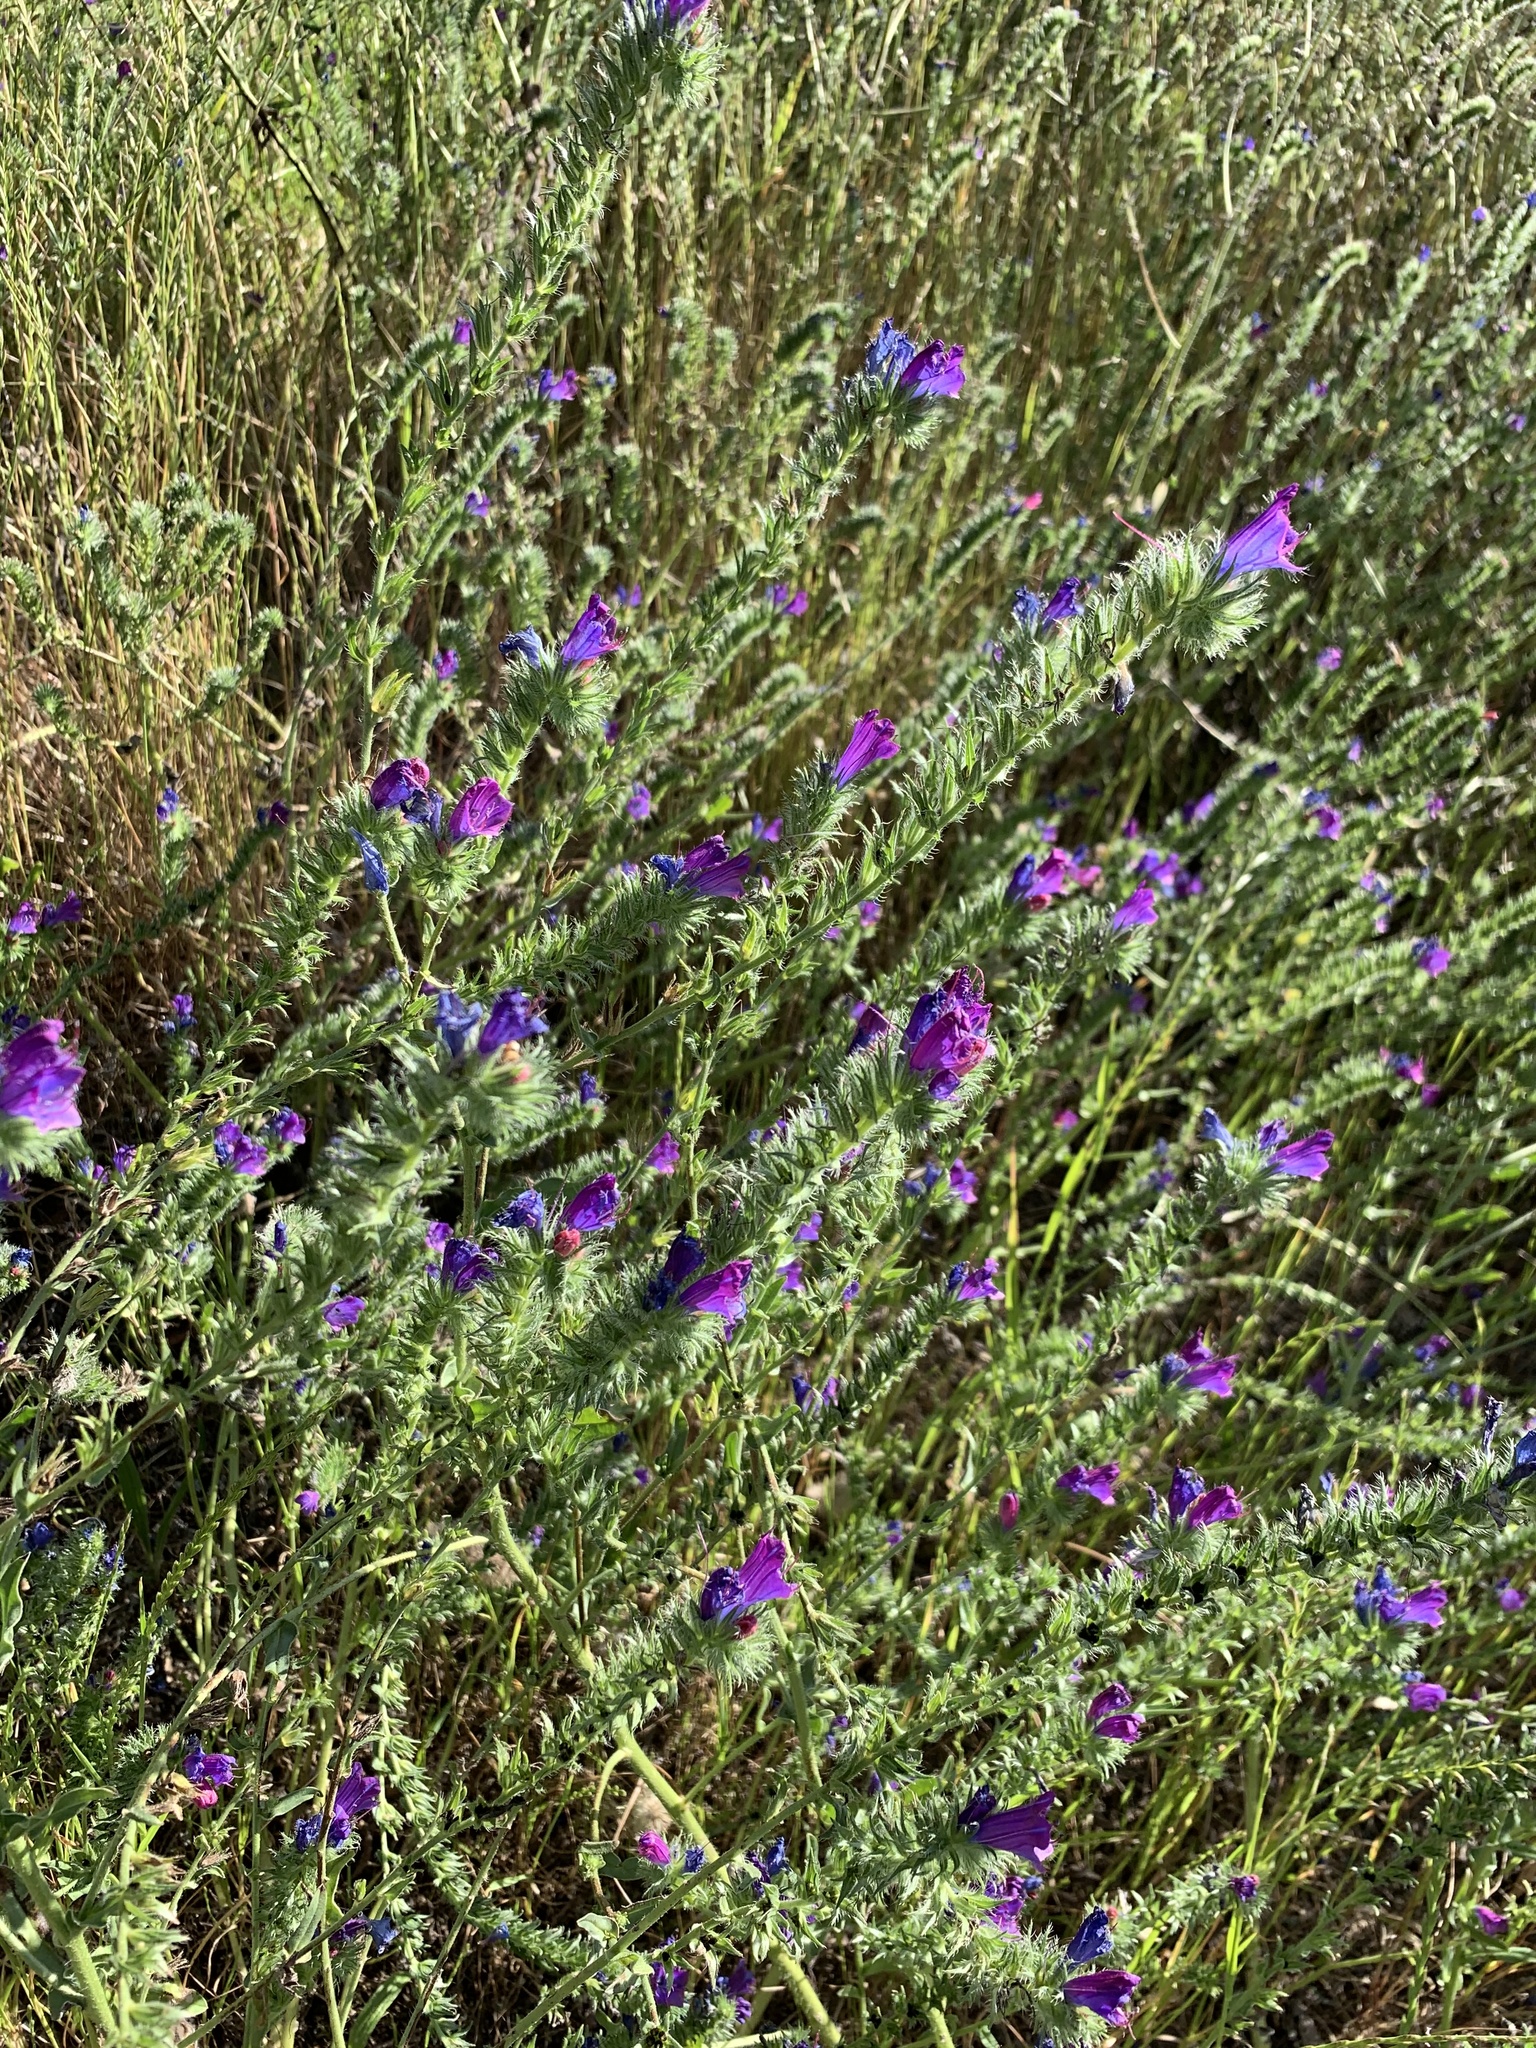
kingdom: Plantae
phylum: Tracheophyta
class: Magnoliopsida
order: Boraginales
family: Boraginaceae
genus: Echium
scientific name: Echium plantagineum
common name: Purple viper's-bugloss
